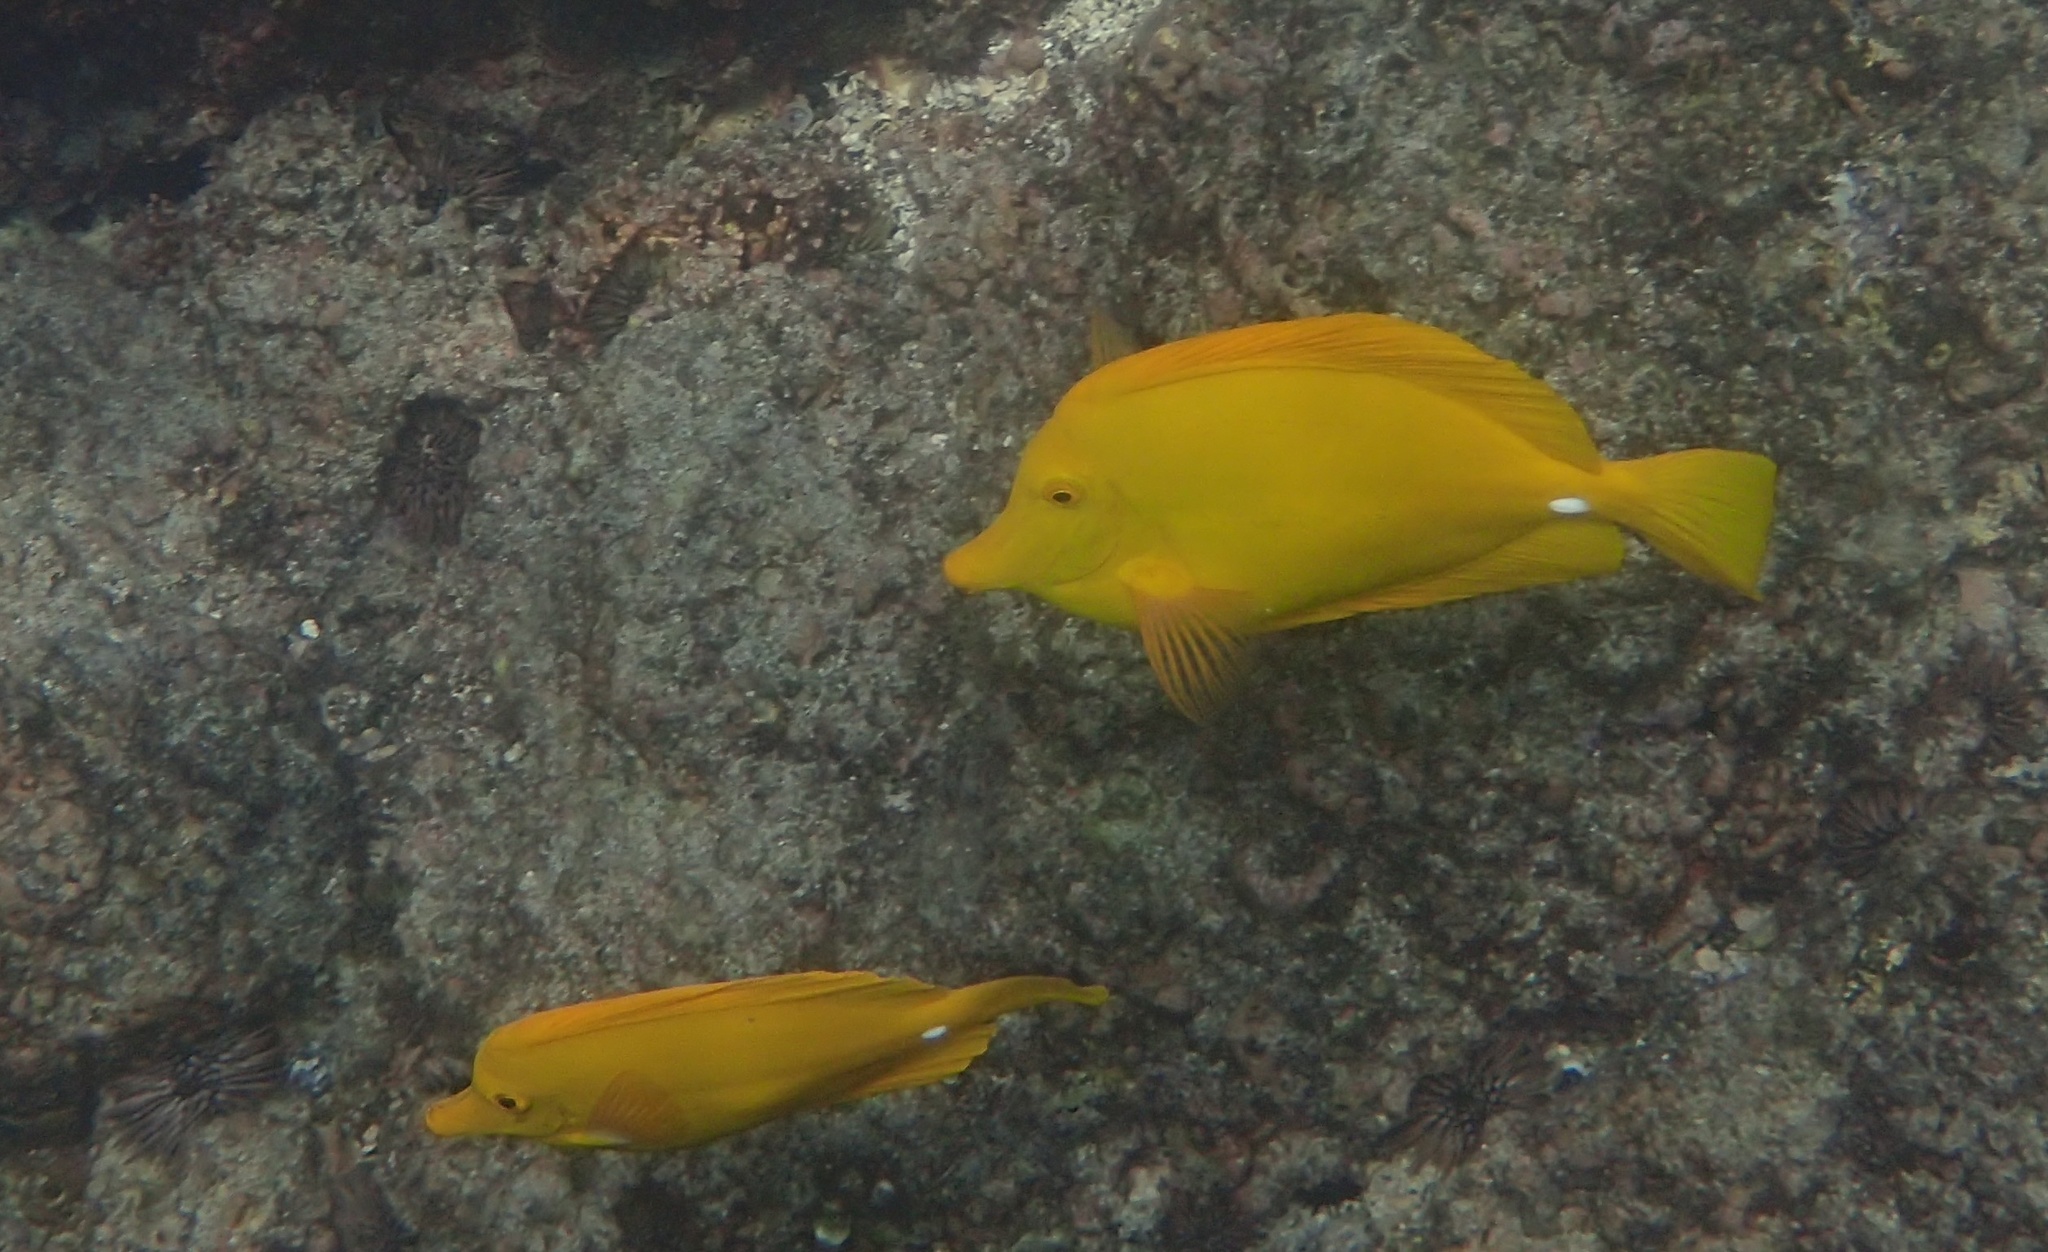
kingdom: Animalia
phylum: Chordata
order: Perciformes
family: Acanthuridae
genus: Zebrasoma
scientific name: Zebrasoma flavescens
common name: Yellow tang
